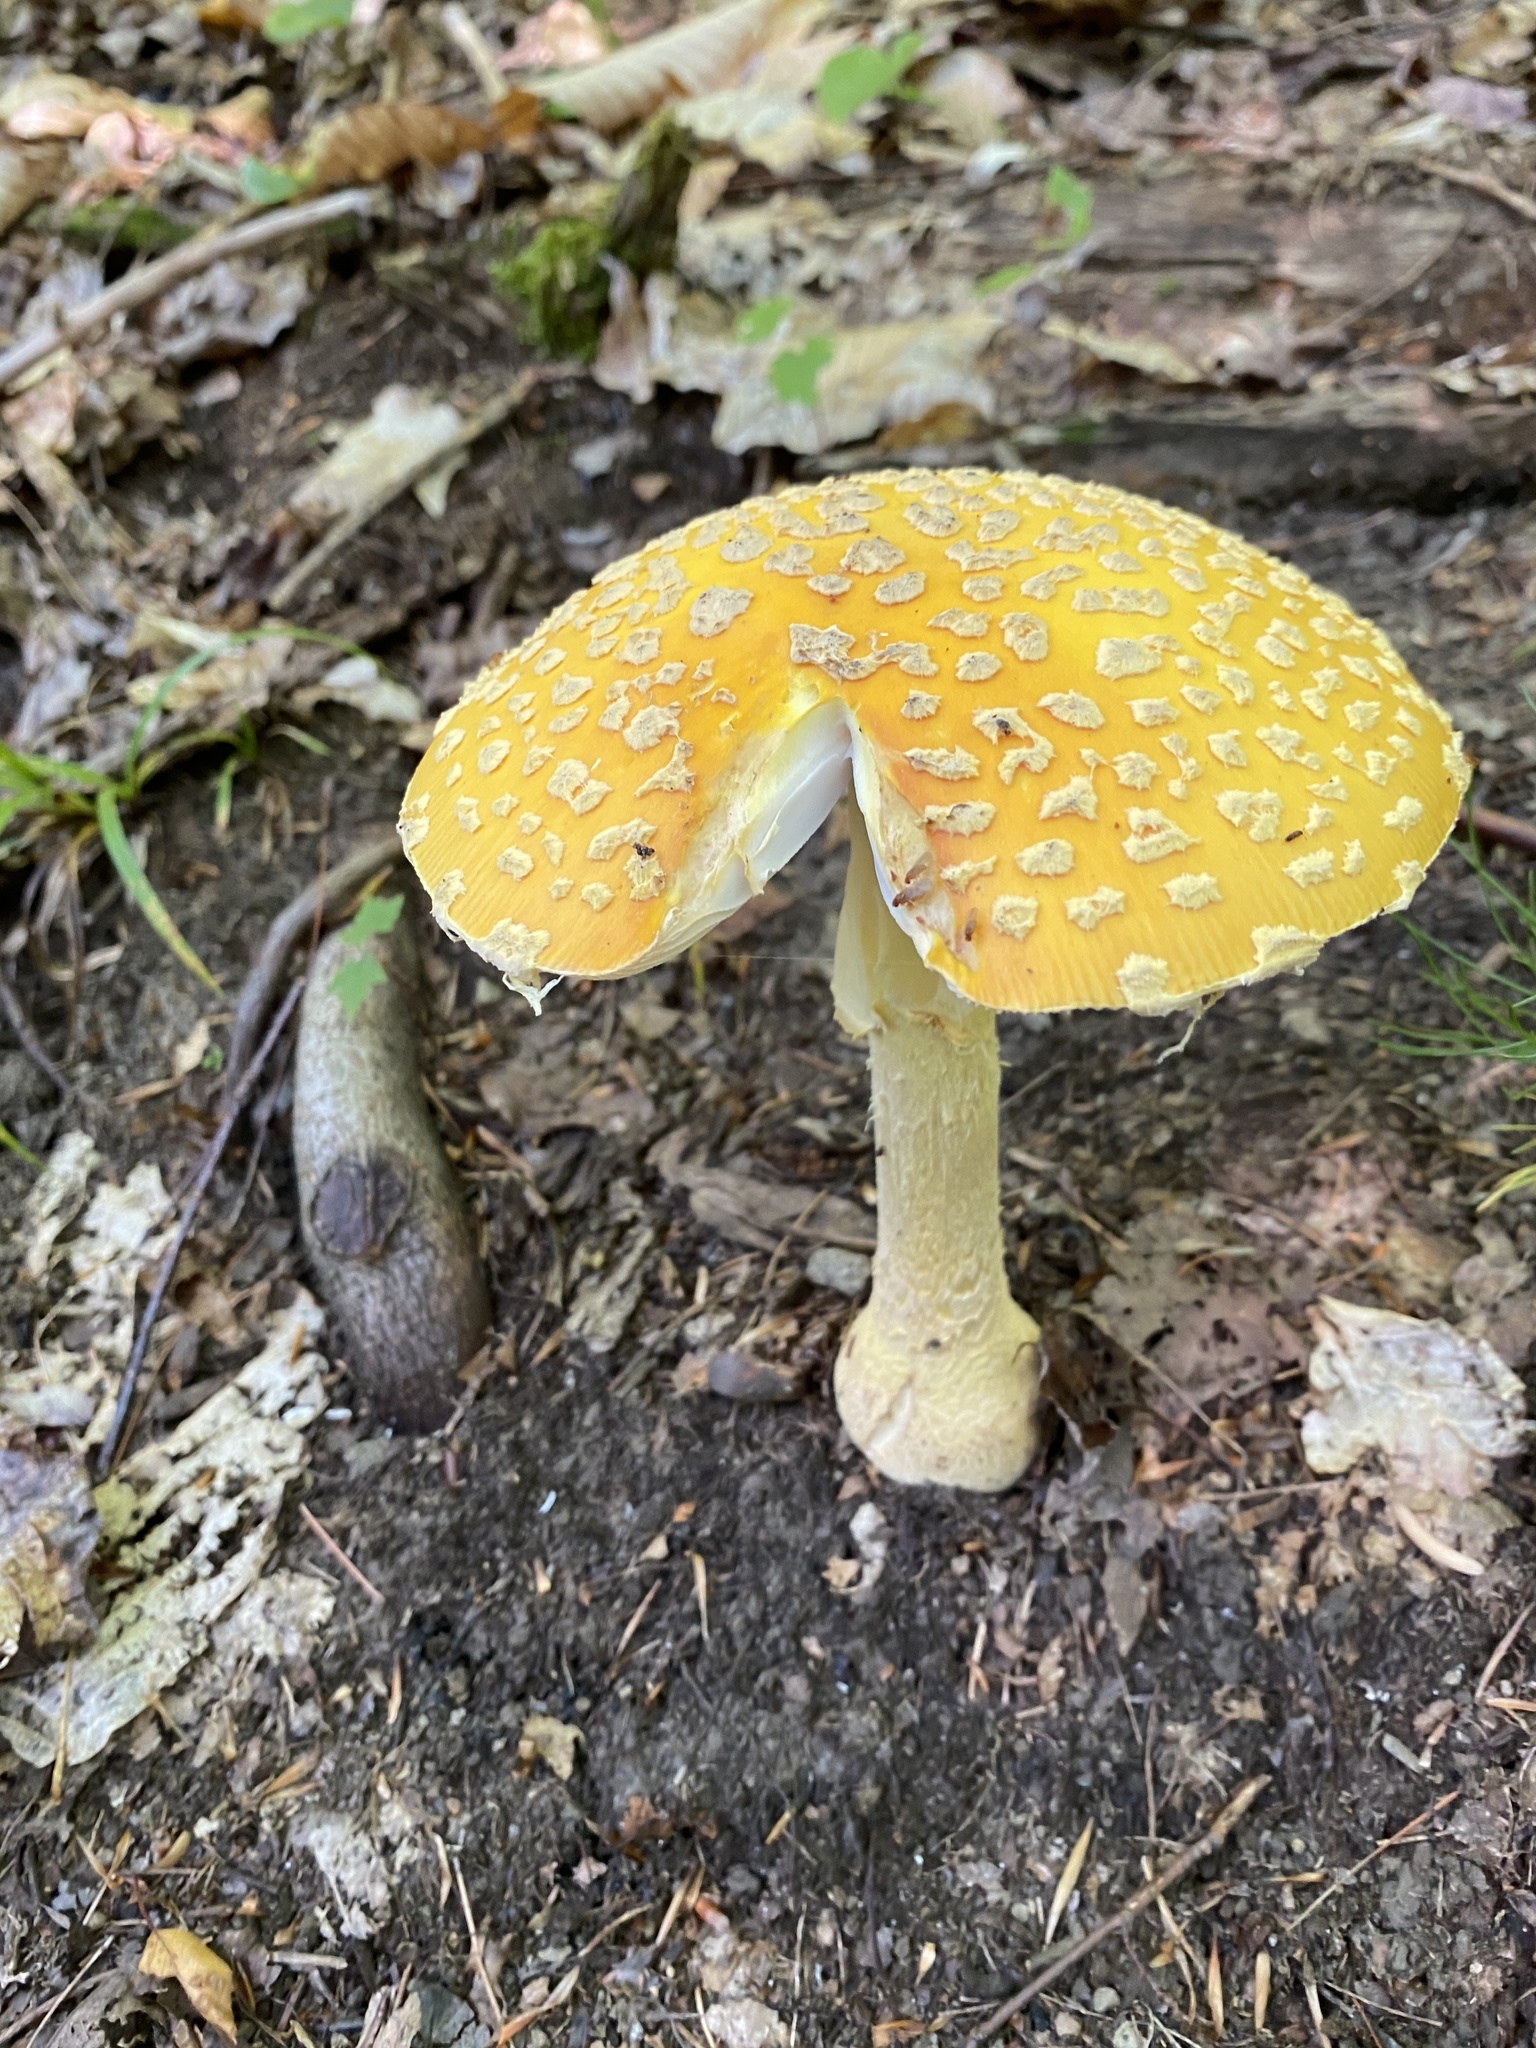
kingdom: Fungi
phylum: Basidiomycota
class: Agaricomycetes
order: Agaricales
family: Amanitaceae
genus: Amanita
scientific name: Amanita muscaria
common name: Fly agaric
